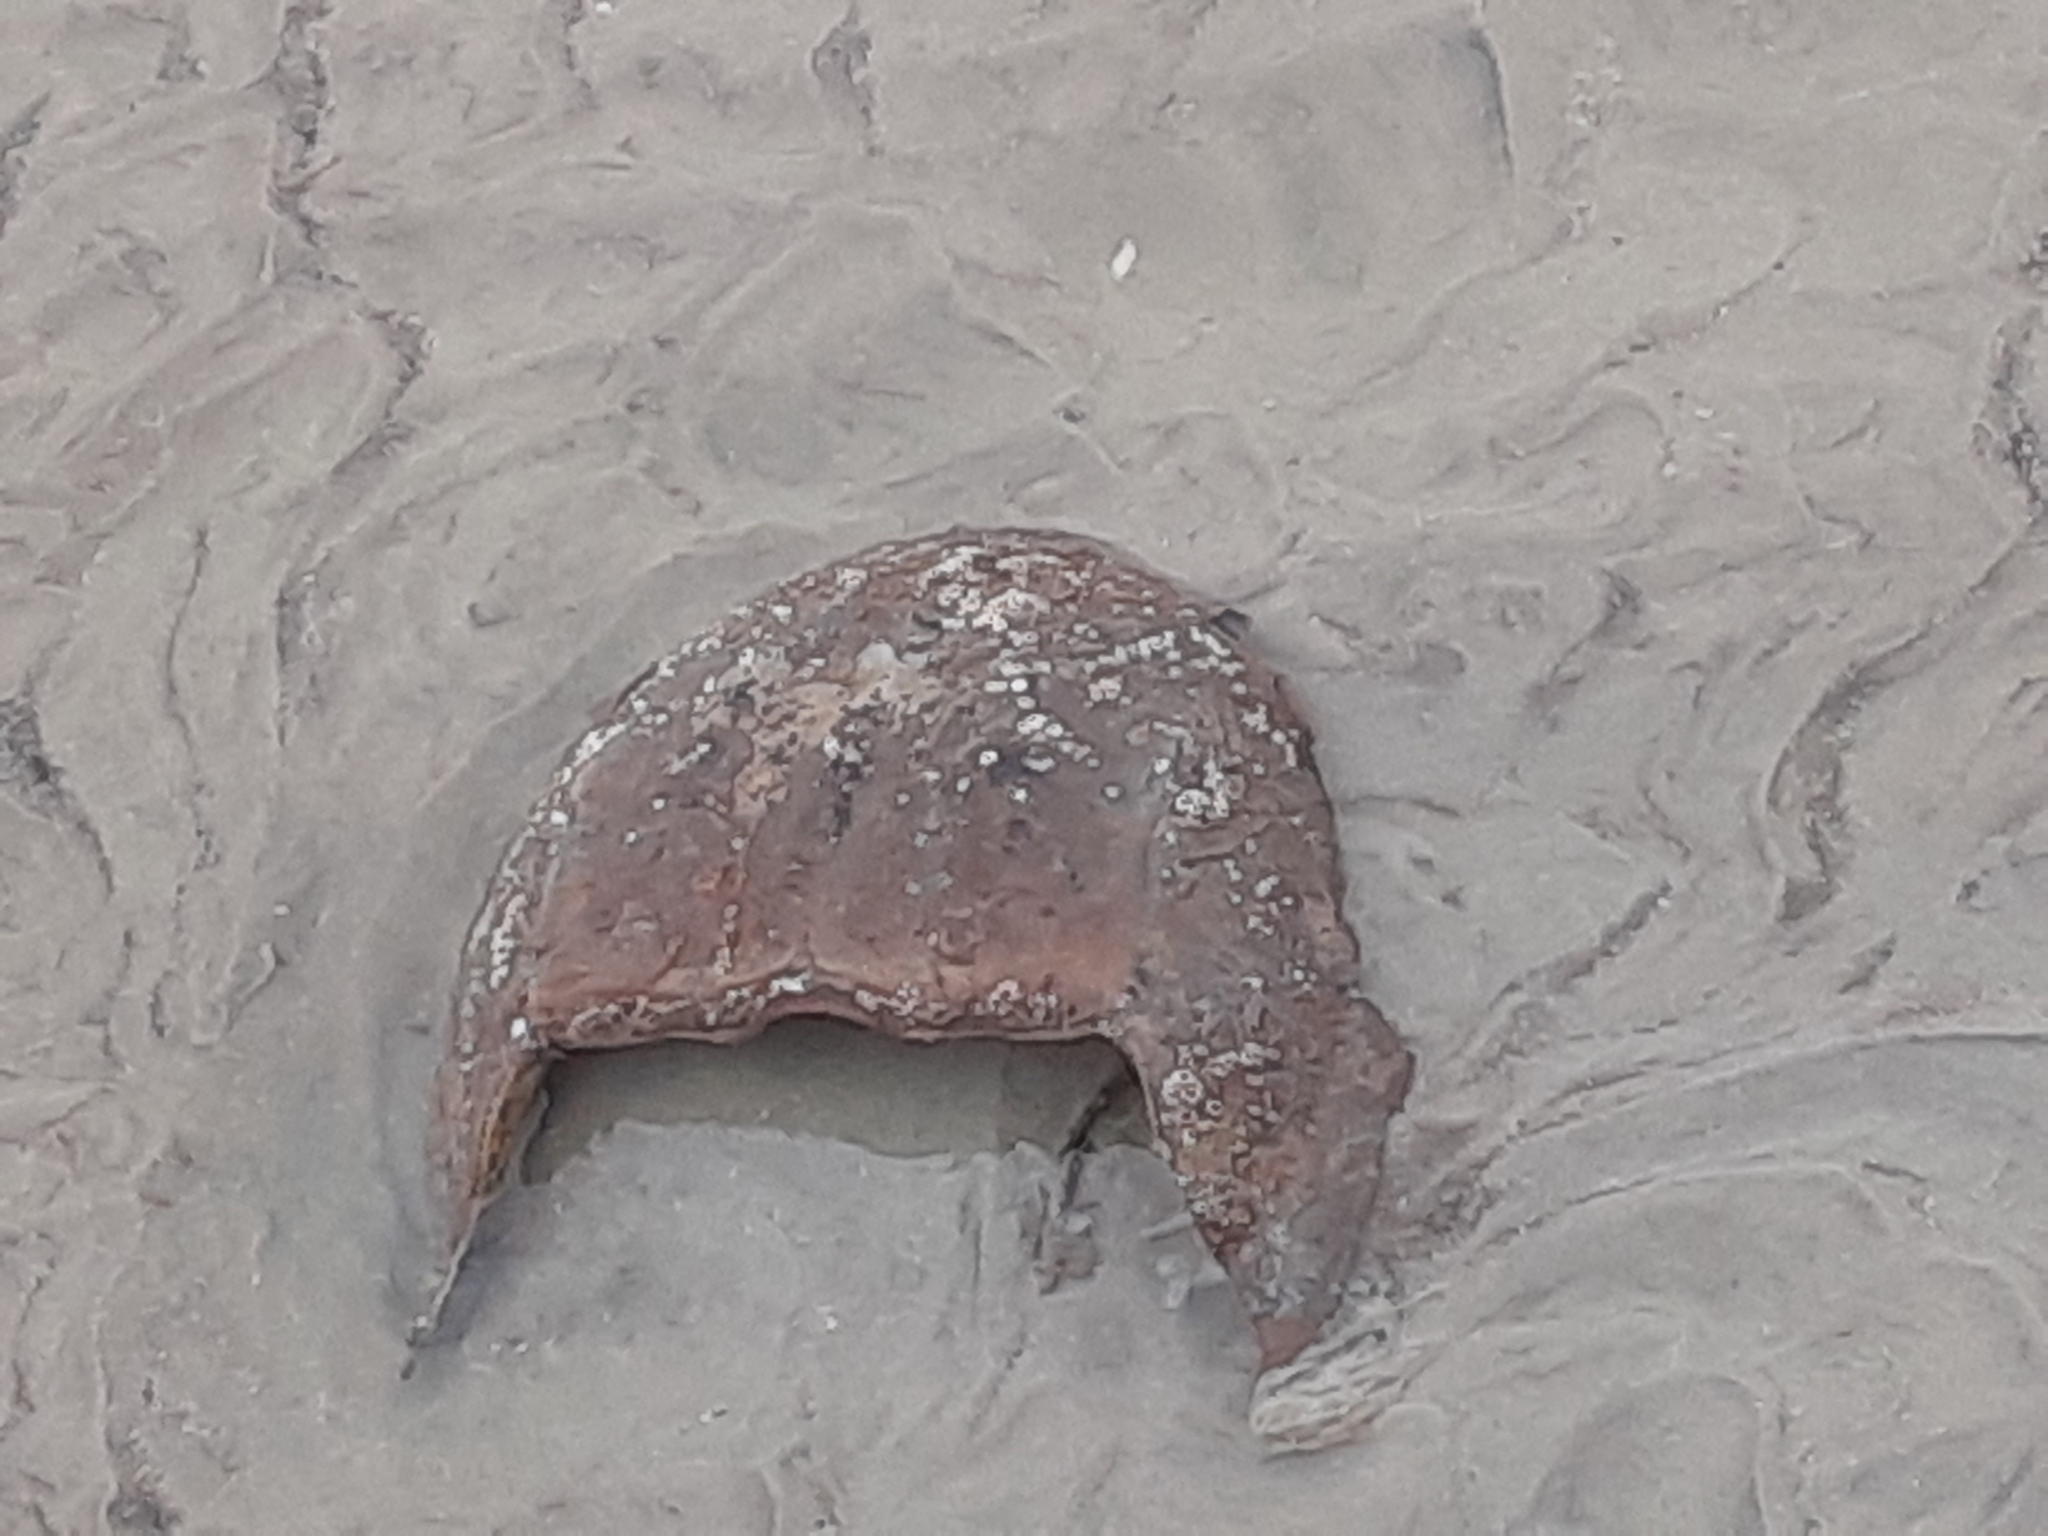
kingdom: Animalia
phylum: Arthropoda
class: Merostomata
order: Xiphosurida
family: Limulidae
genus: Limulus
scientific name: Limulus polyphemus
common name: Horseshoe crab
